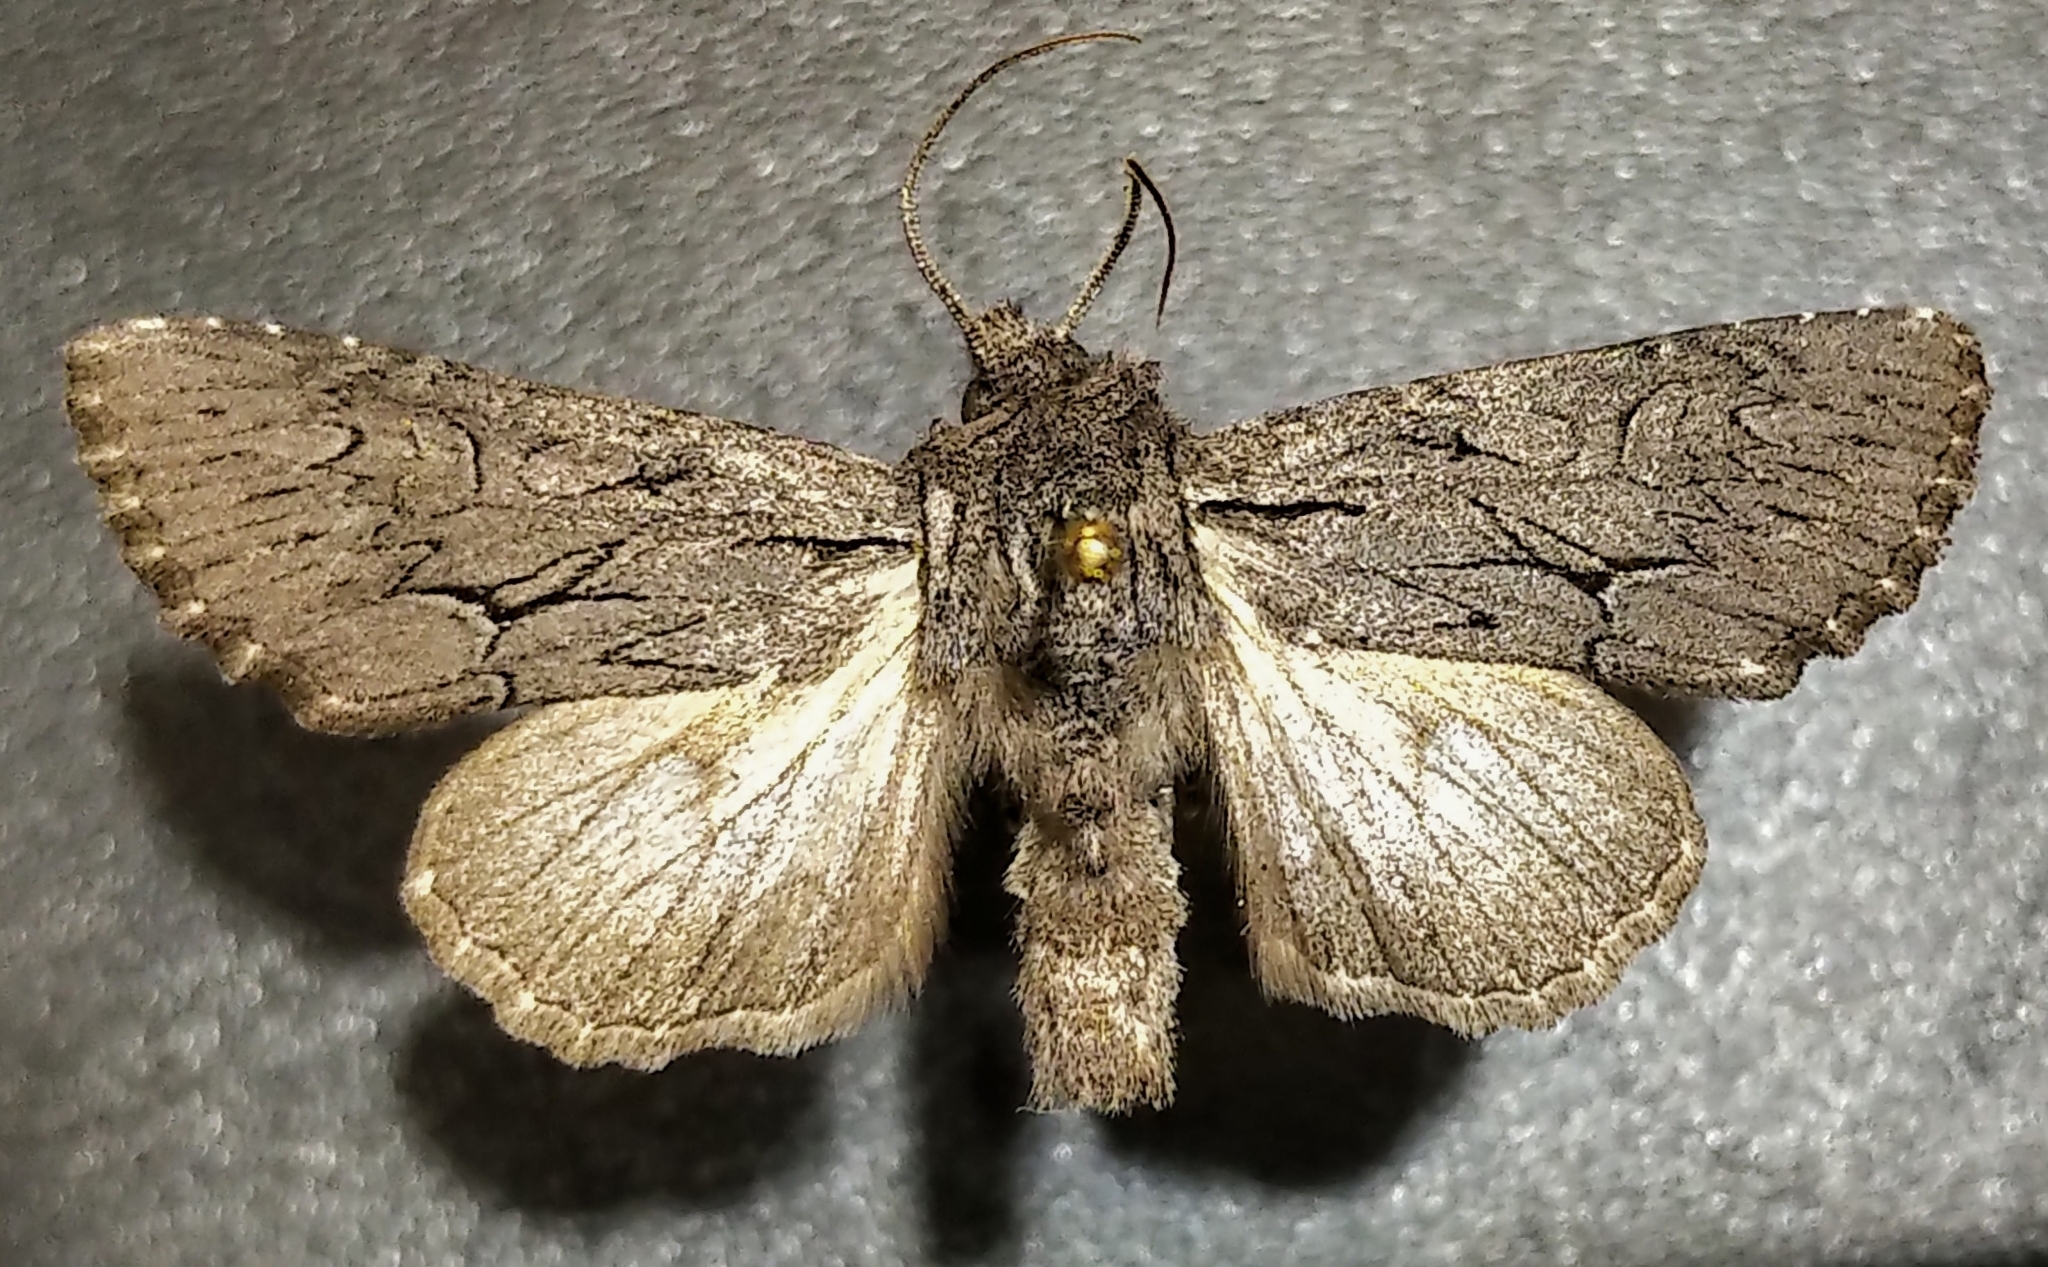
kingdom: Animalia
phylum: Arthropoda
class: Insecta
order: Lepidoptera
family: Noctuidae
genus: Fishia
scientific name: Fishia yosemitae
